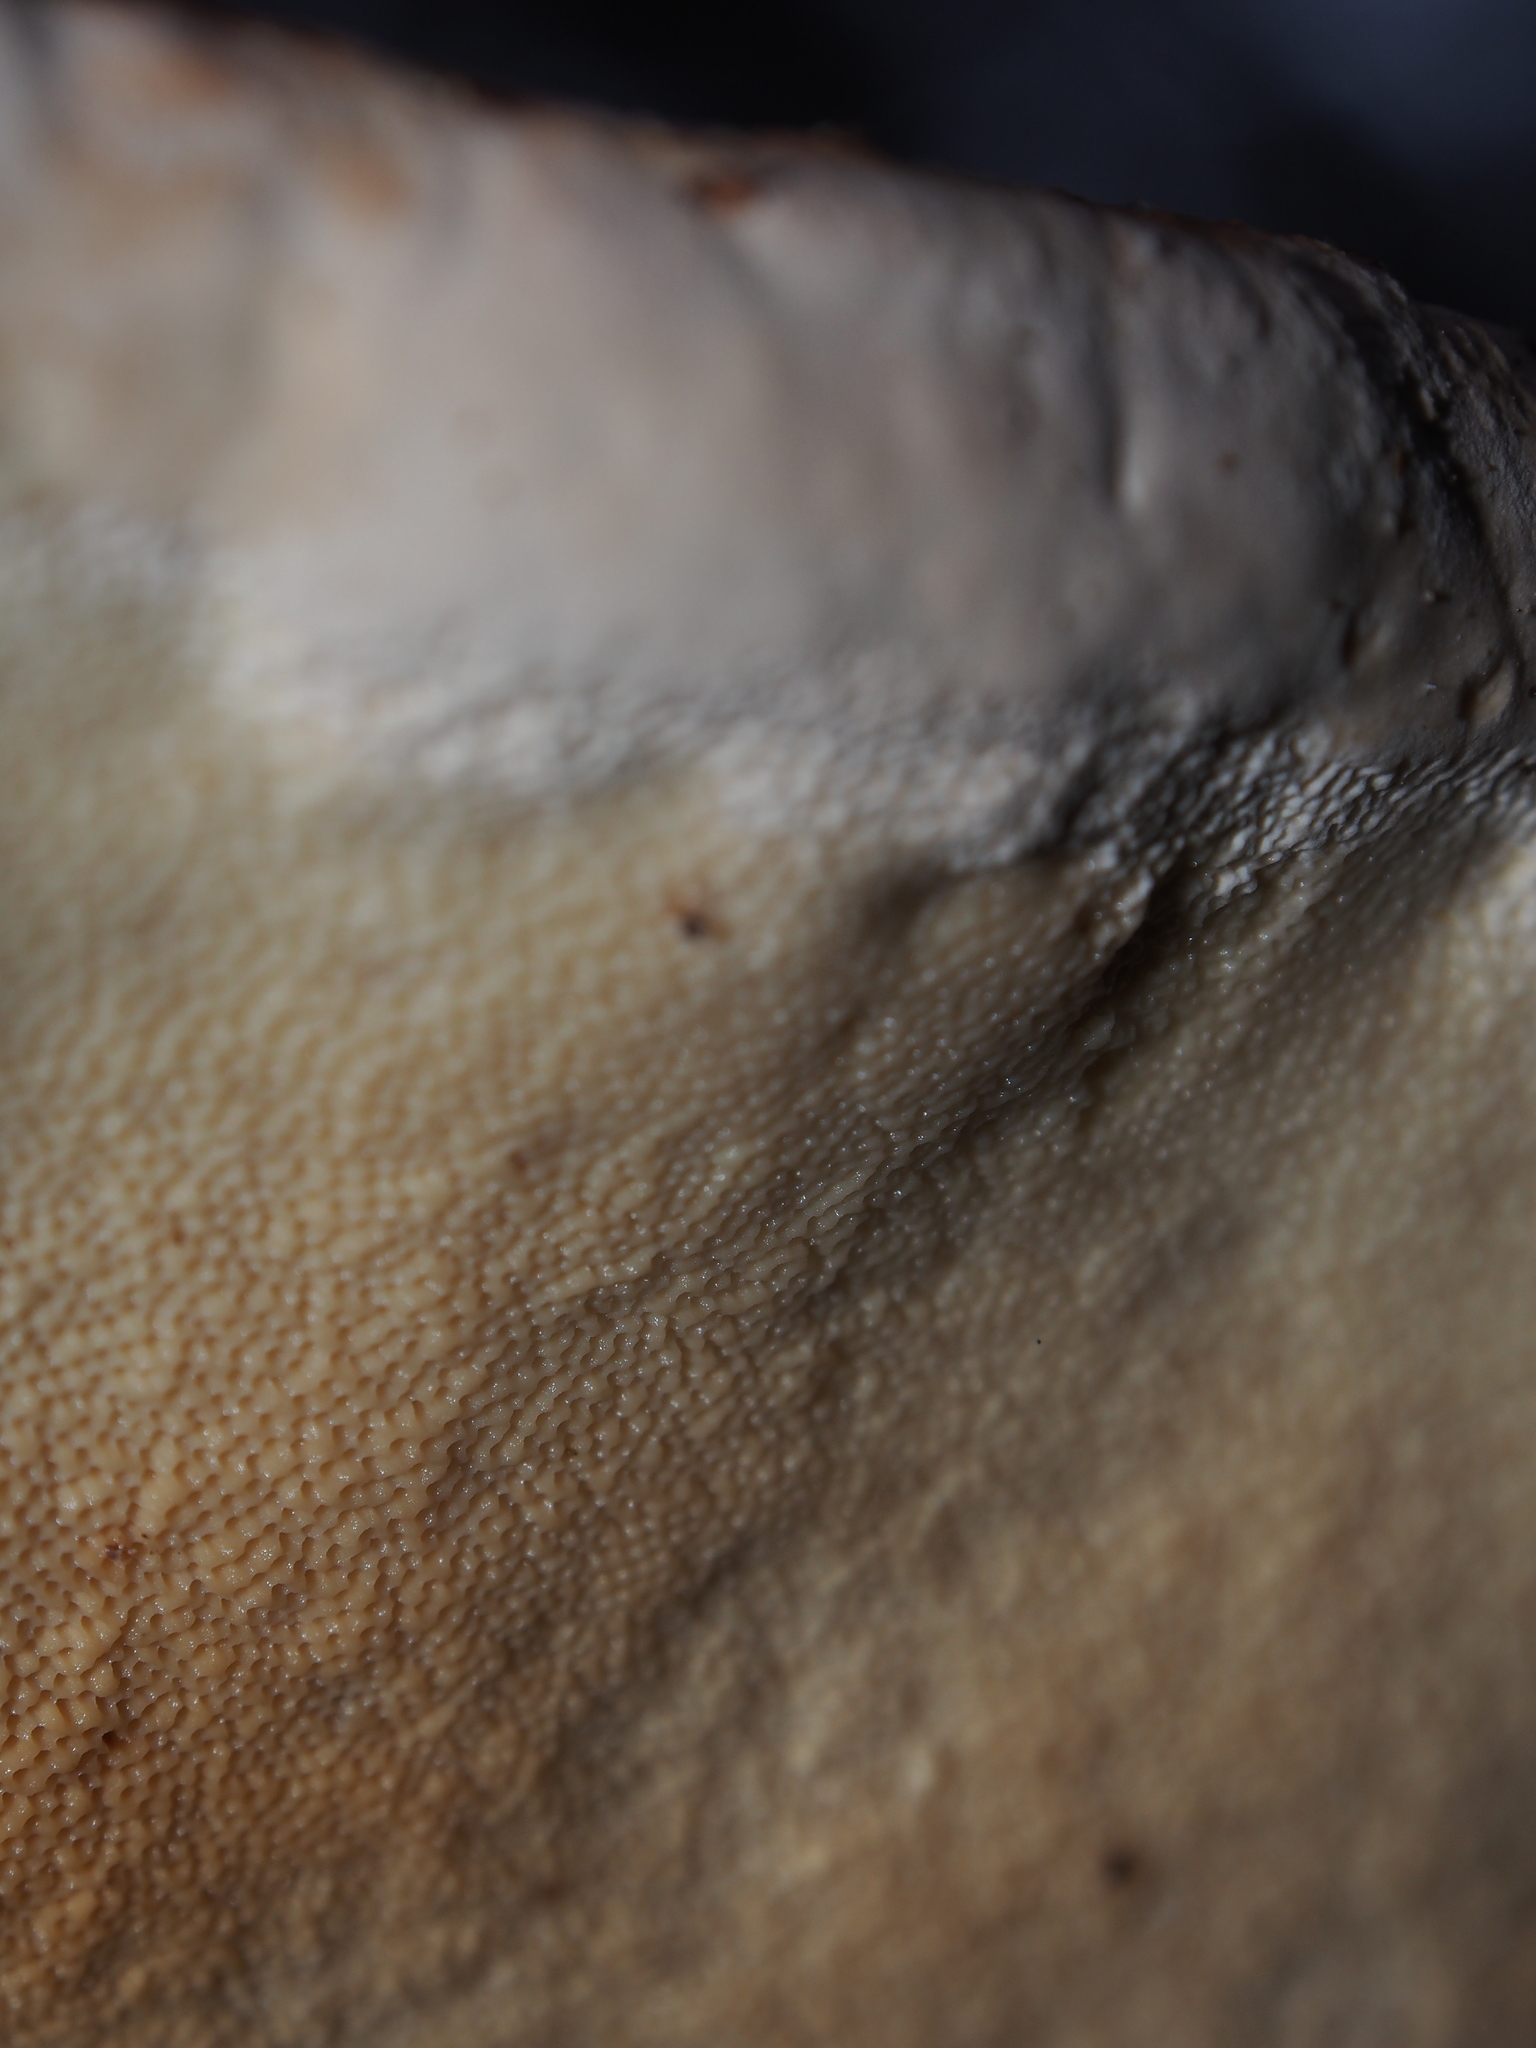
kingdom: Fungi
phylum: Basidiomycota
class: Agaricomycetes
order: Polyporales
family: Fomitopsidaceae
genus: Fomitopsis
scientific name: Fomitopsis pinicola
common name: Red-belted bracket
